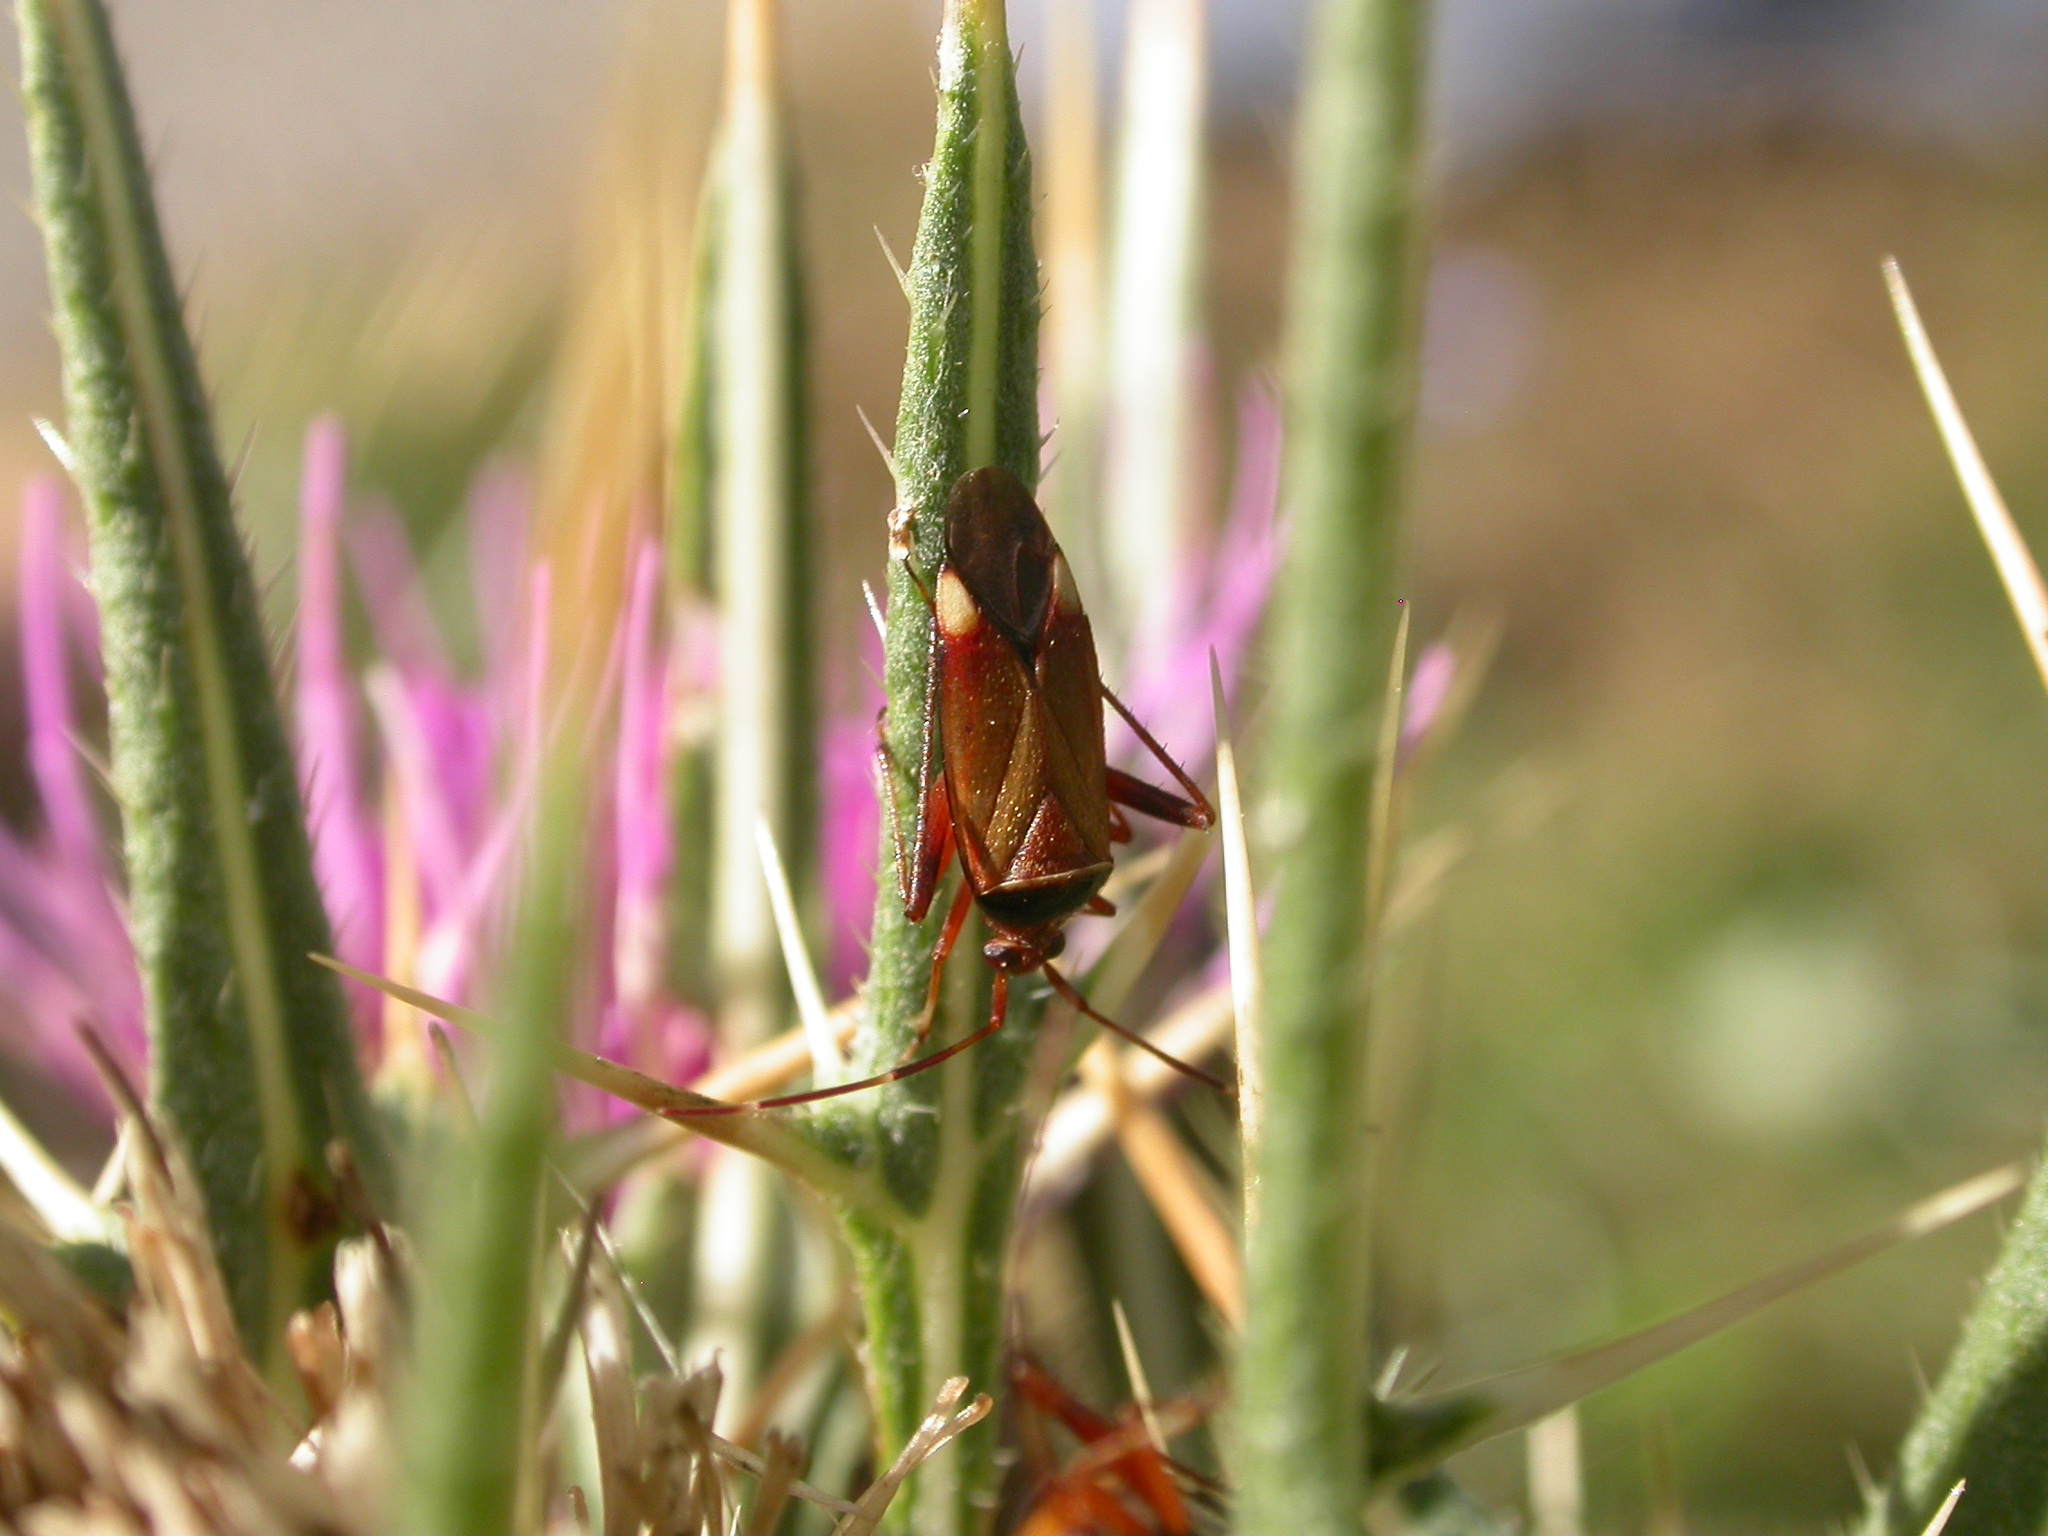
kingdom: Animalia
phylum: Arthropoda
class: Insecta
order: Hemiptera
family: Miridae
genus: Adelphocoris
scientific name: Adelphocoris vandalicus
